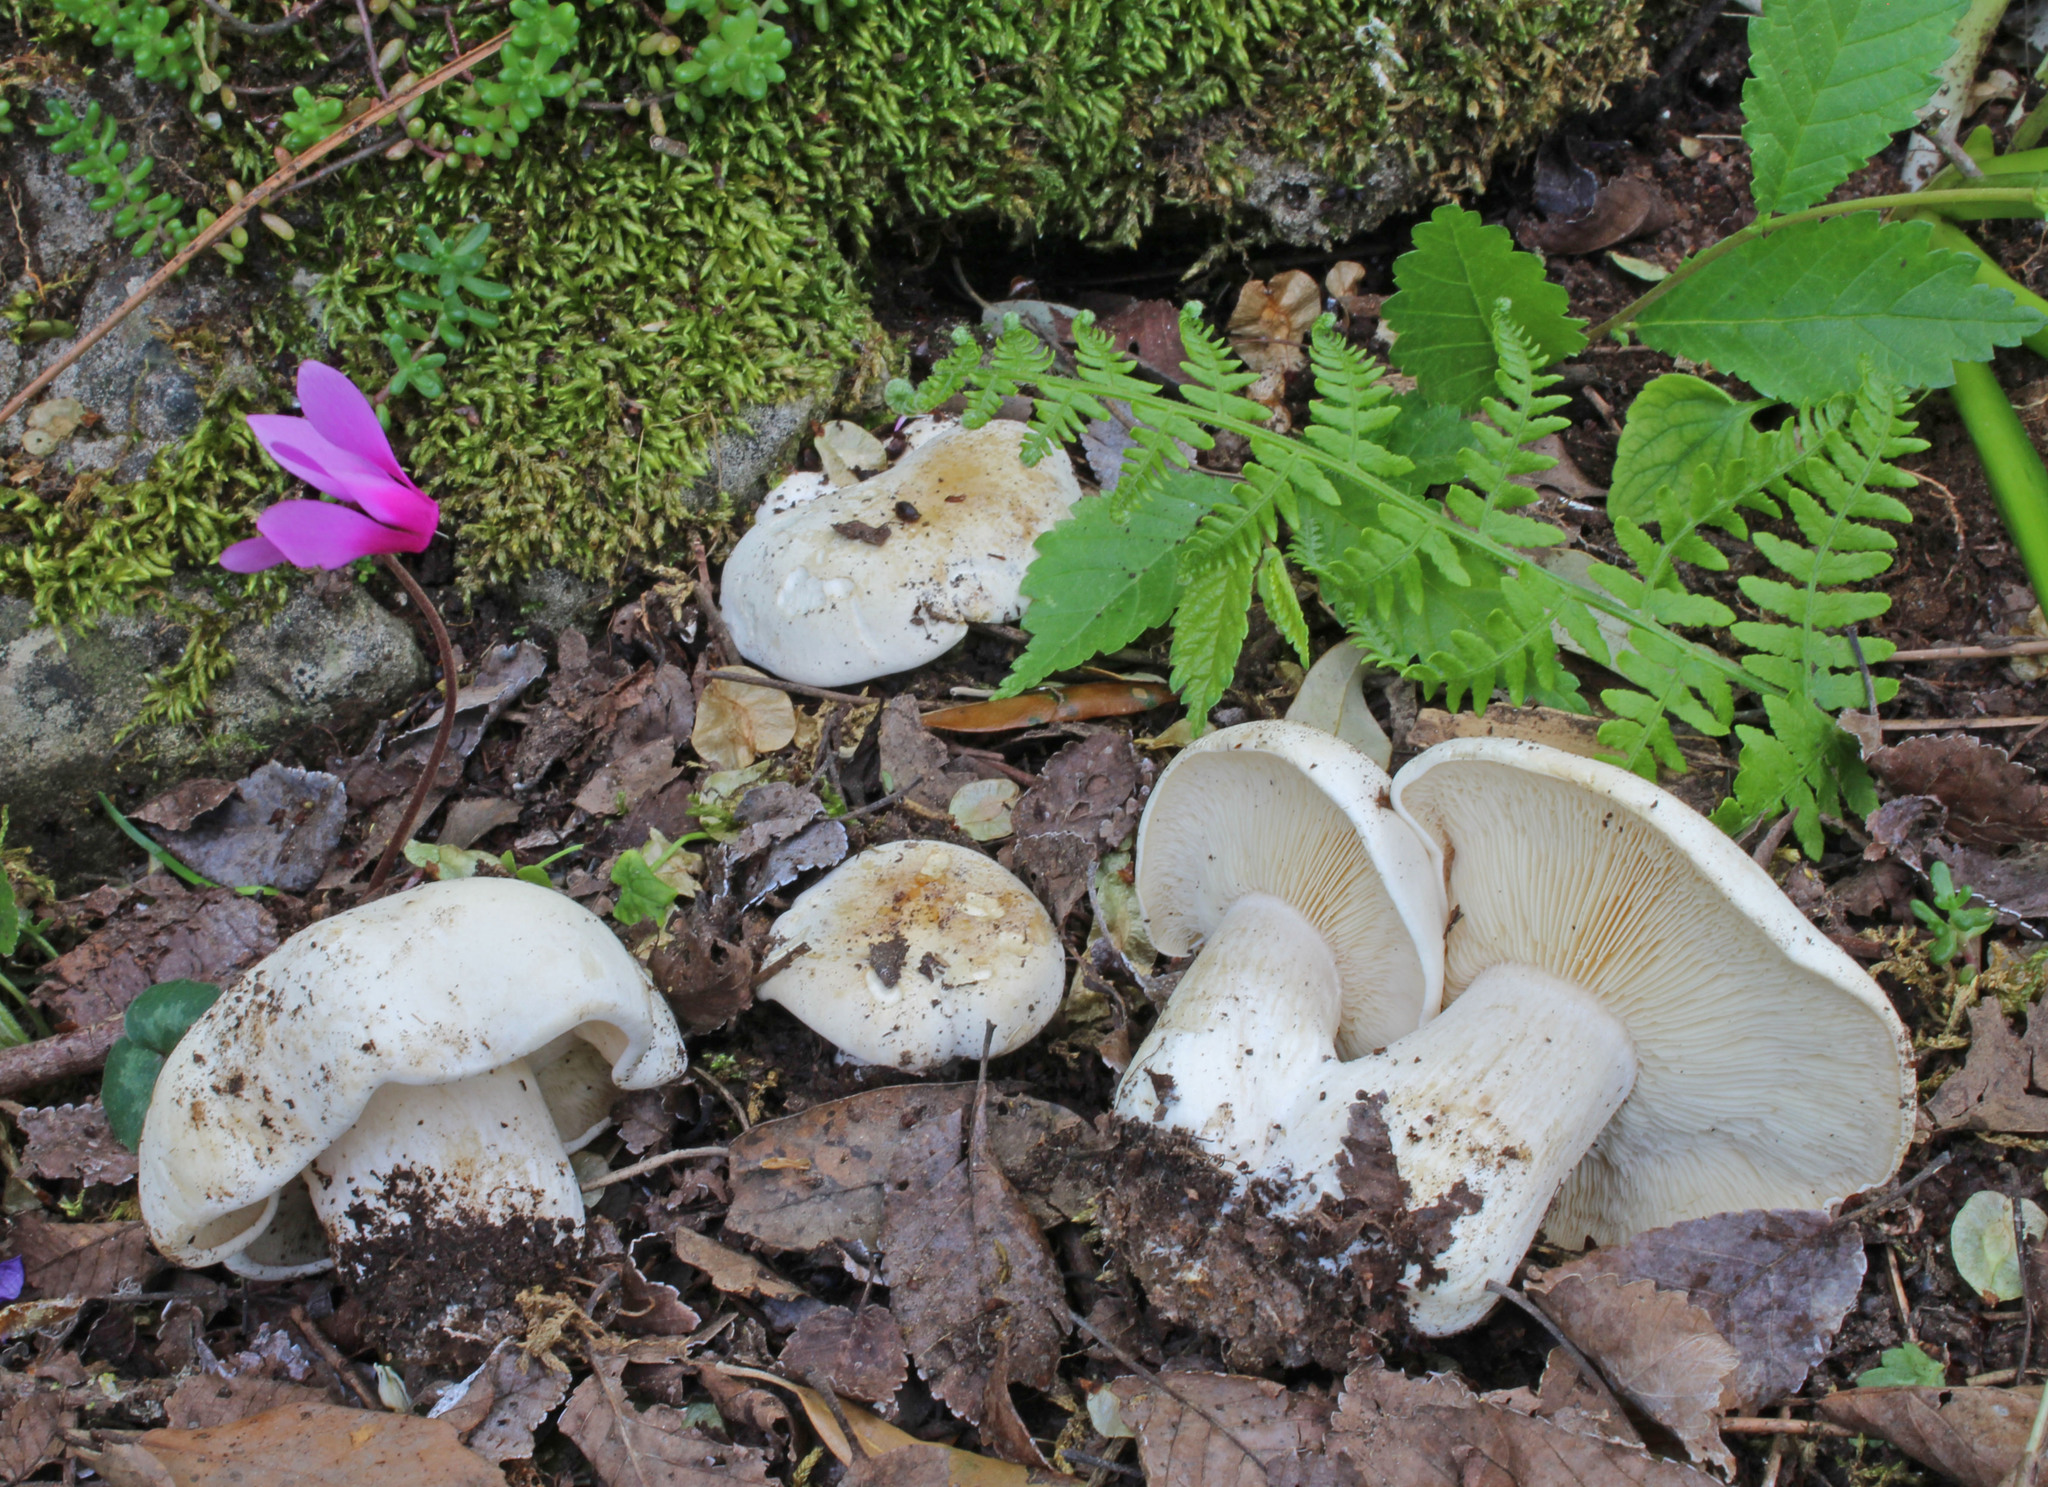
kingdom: Fungi
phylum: Basidiomycota
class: Agaricomycetes
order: Agaricales
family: Lyophyllaceae
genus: Calocybe
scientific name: Calocybe gambosa
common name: St. george's mushroom
